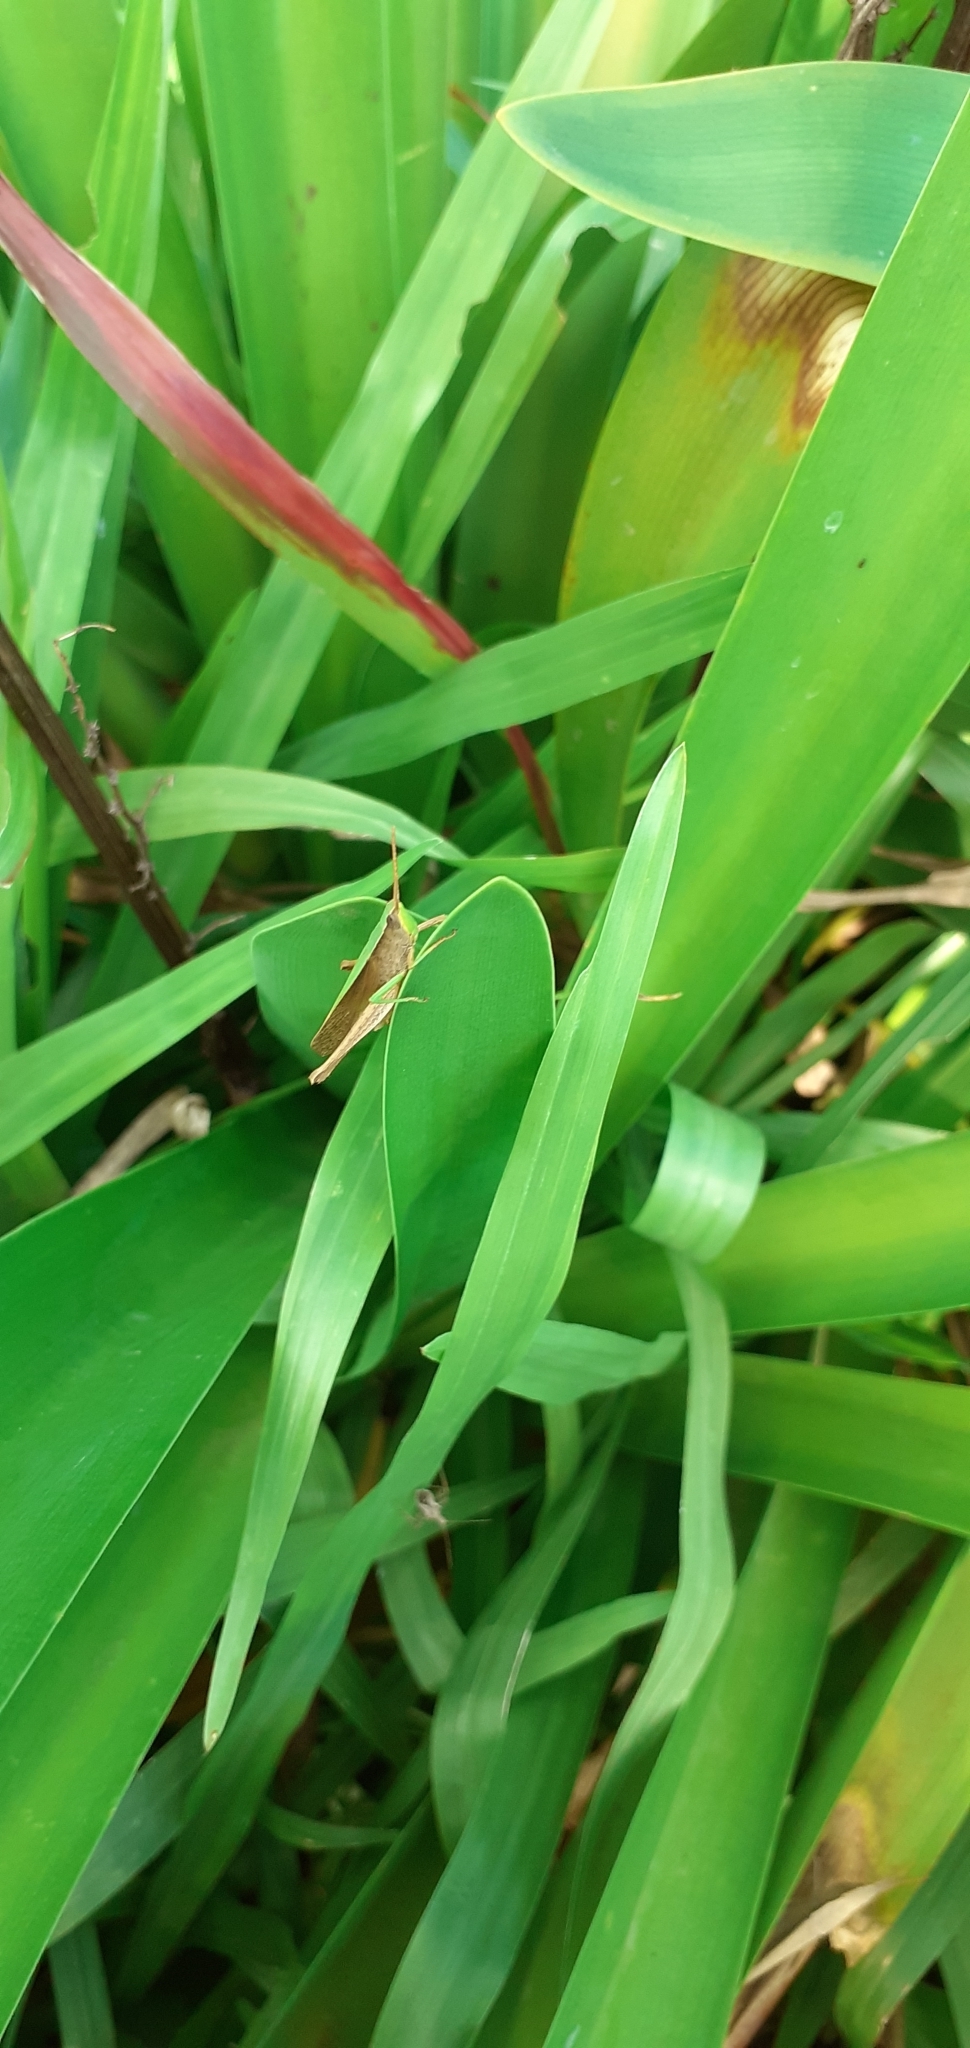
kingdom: Animalia
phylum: Arthropoda
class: Insecta
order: Orthoptera
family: Acrididae
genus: Metaleptea
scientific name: Metaleptea adspersa
